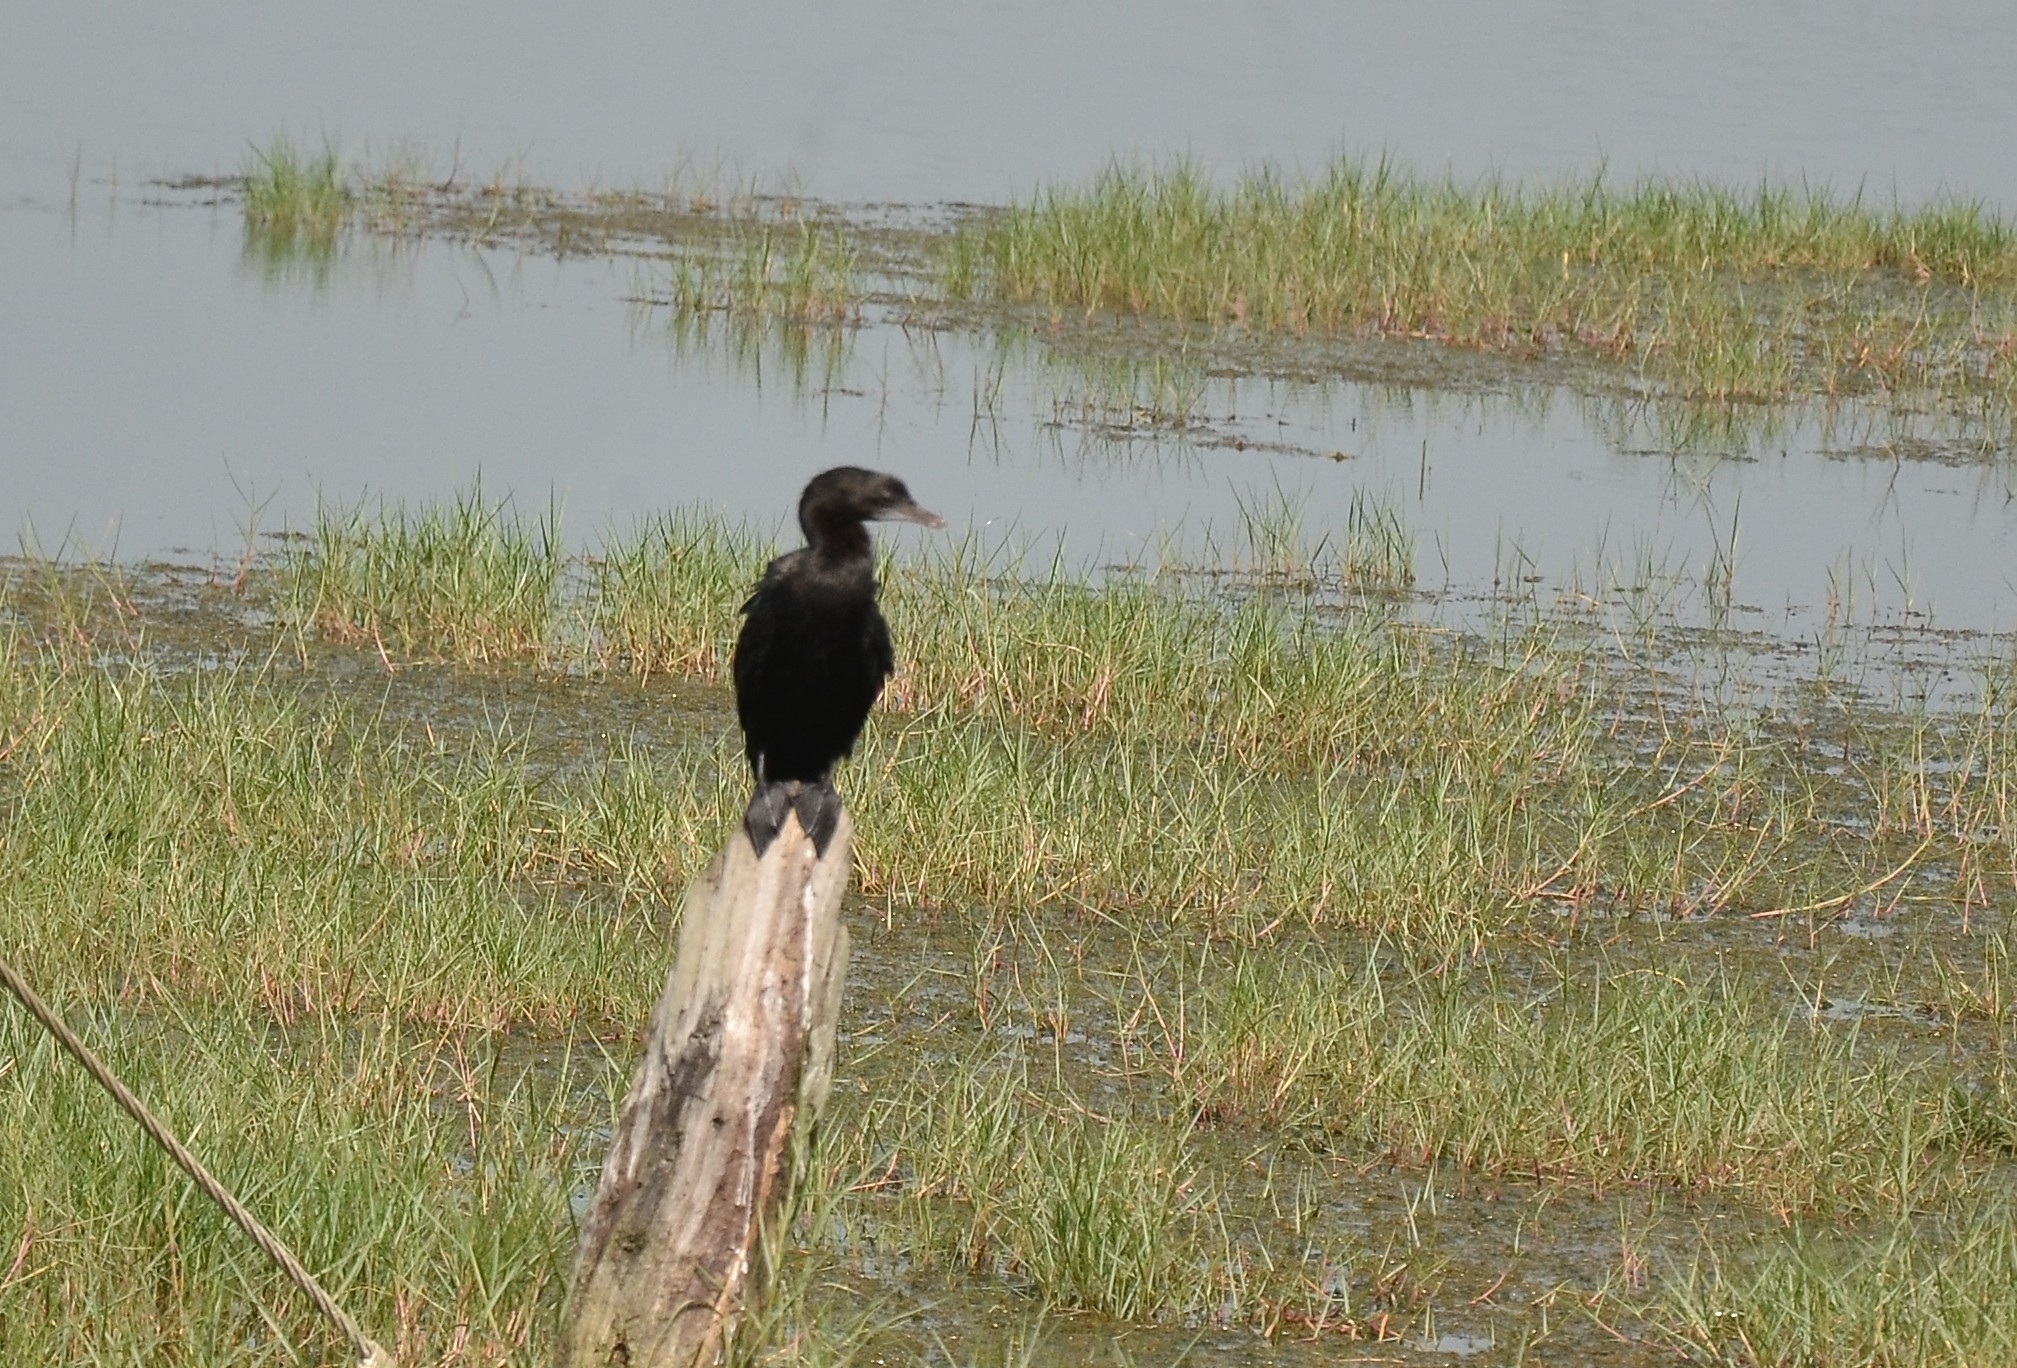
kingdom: Animalia
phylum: Chordata
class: Aves
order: Suliformes
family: Phalacrocoracidae
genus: Microcarbo
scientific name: Microcarbo niger
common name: Little cormorant
